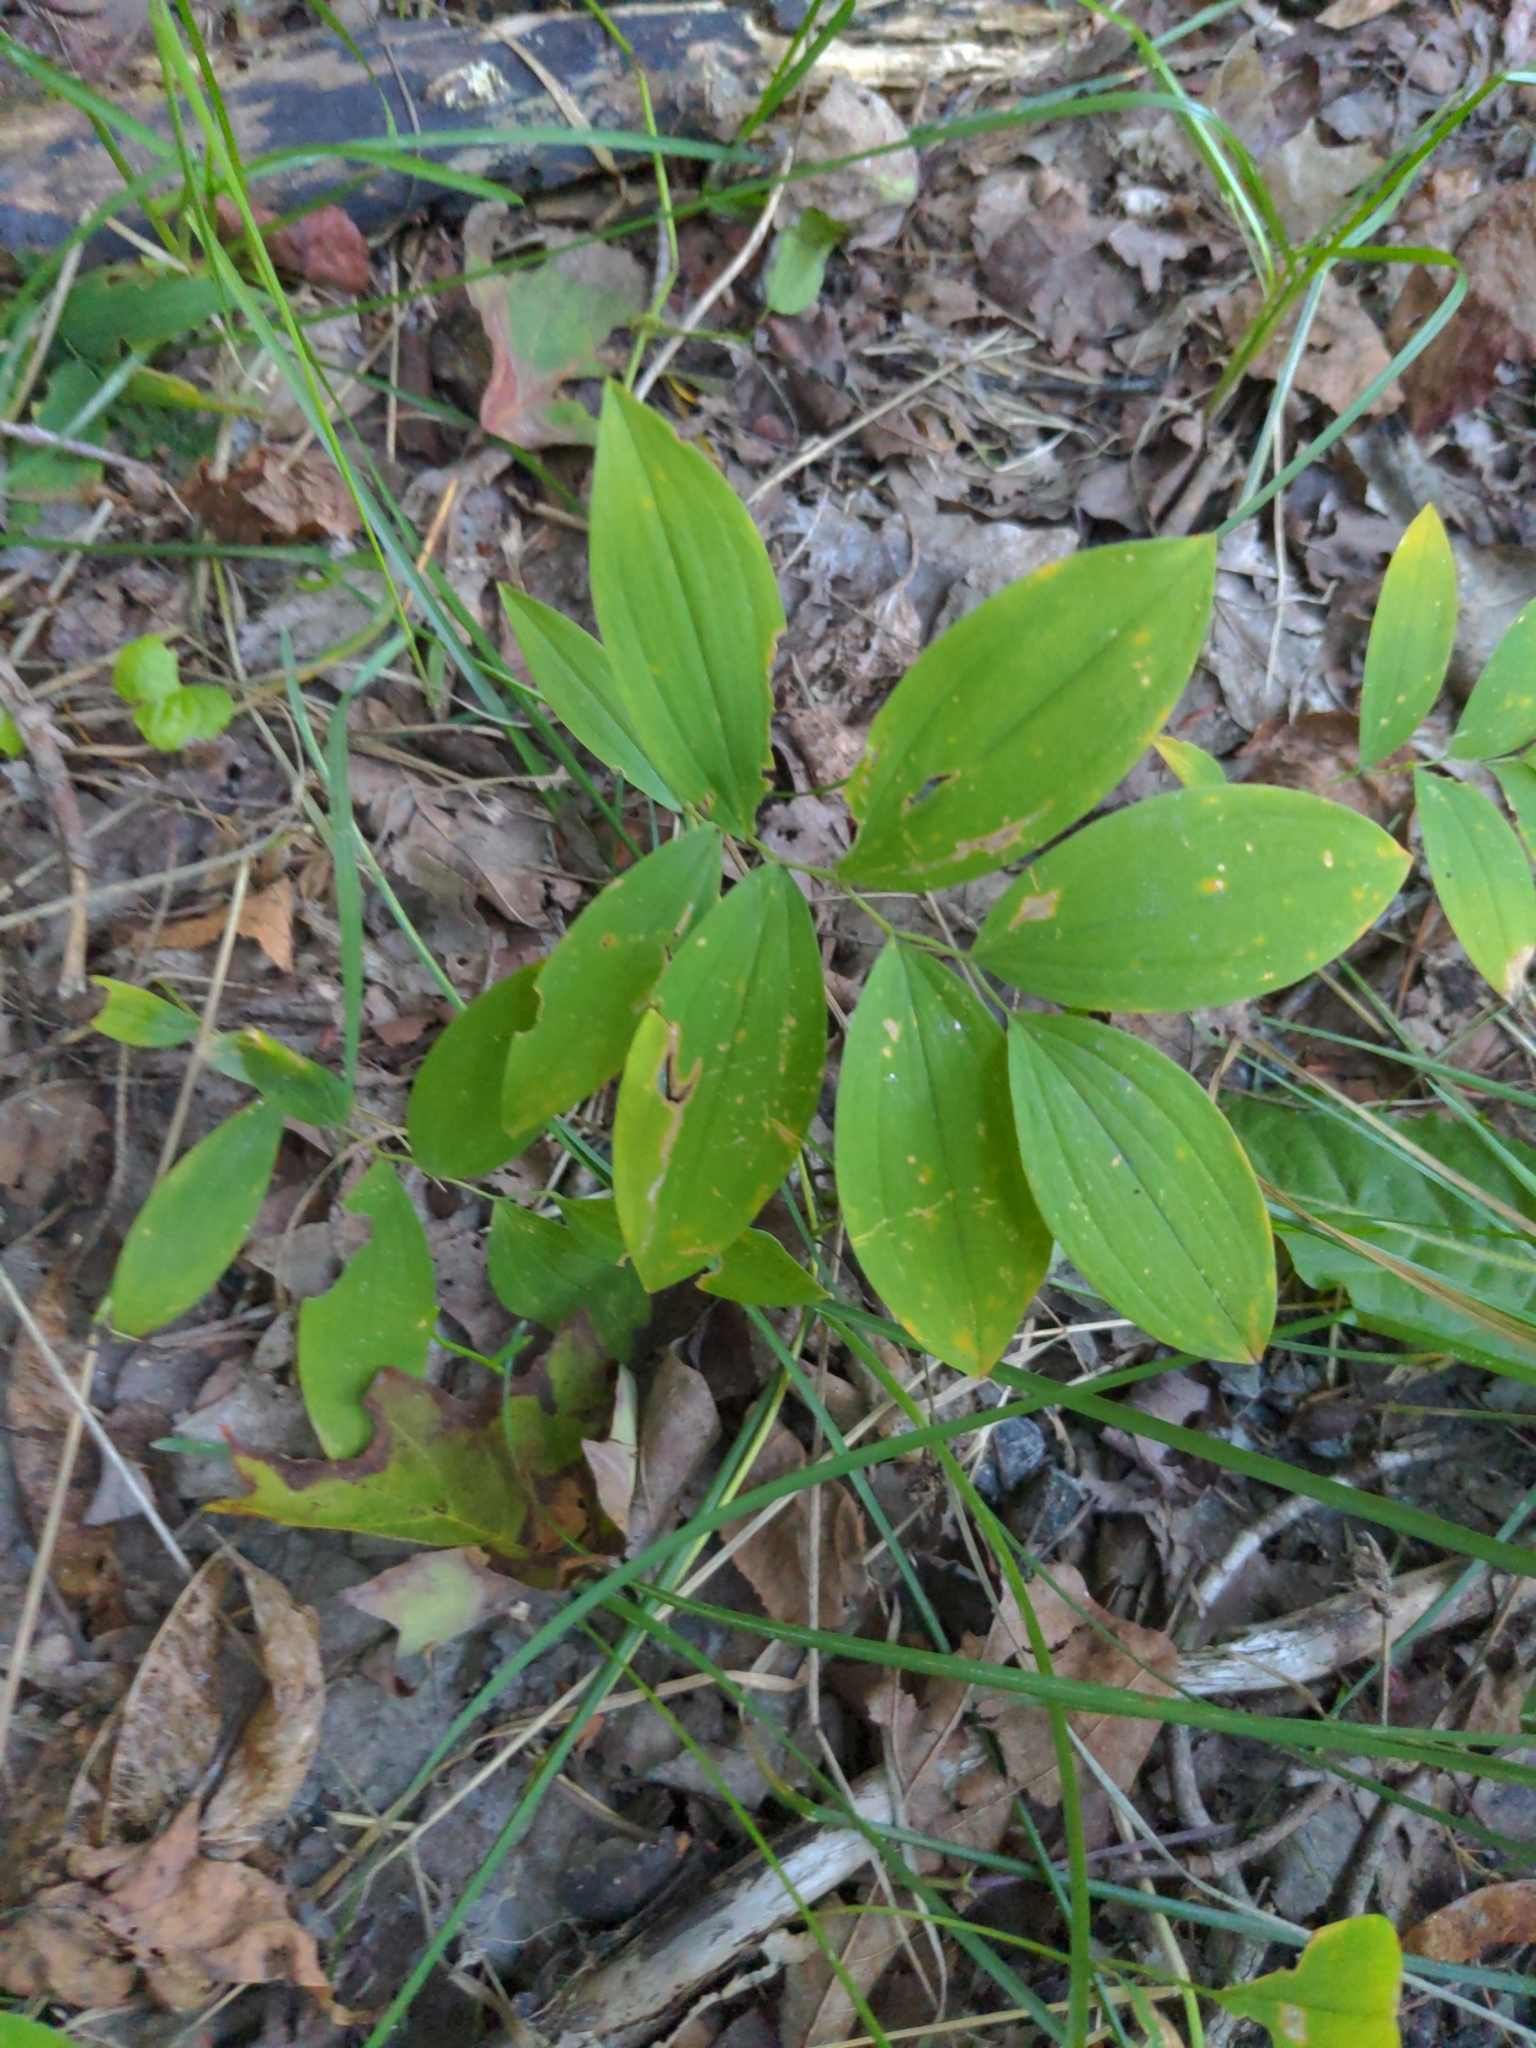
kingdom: Plantae
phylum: Tracheophyta
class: Liliopsida
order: Liliales
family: Colchicaceae
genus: Uvularia
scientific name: Uvularia sessilifolia
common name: Straw-lily
